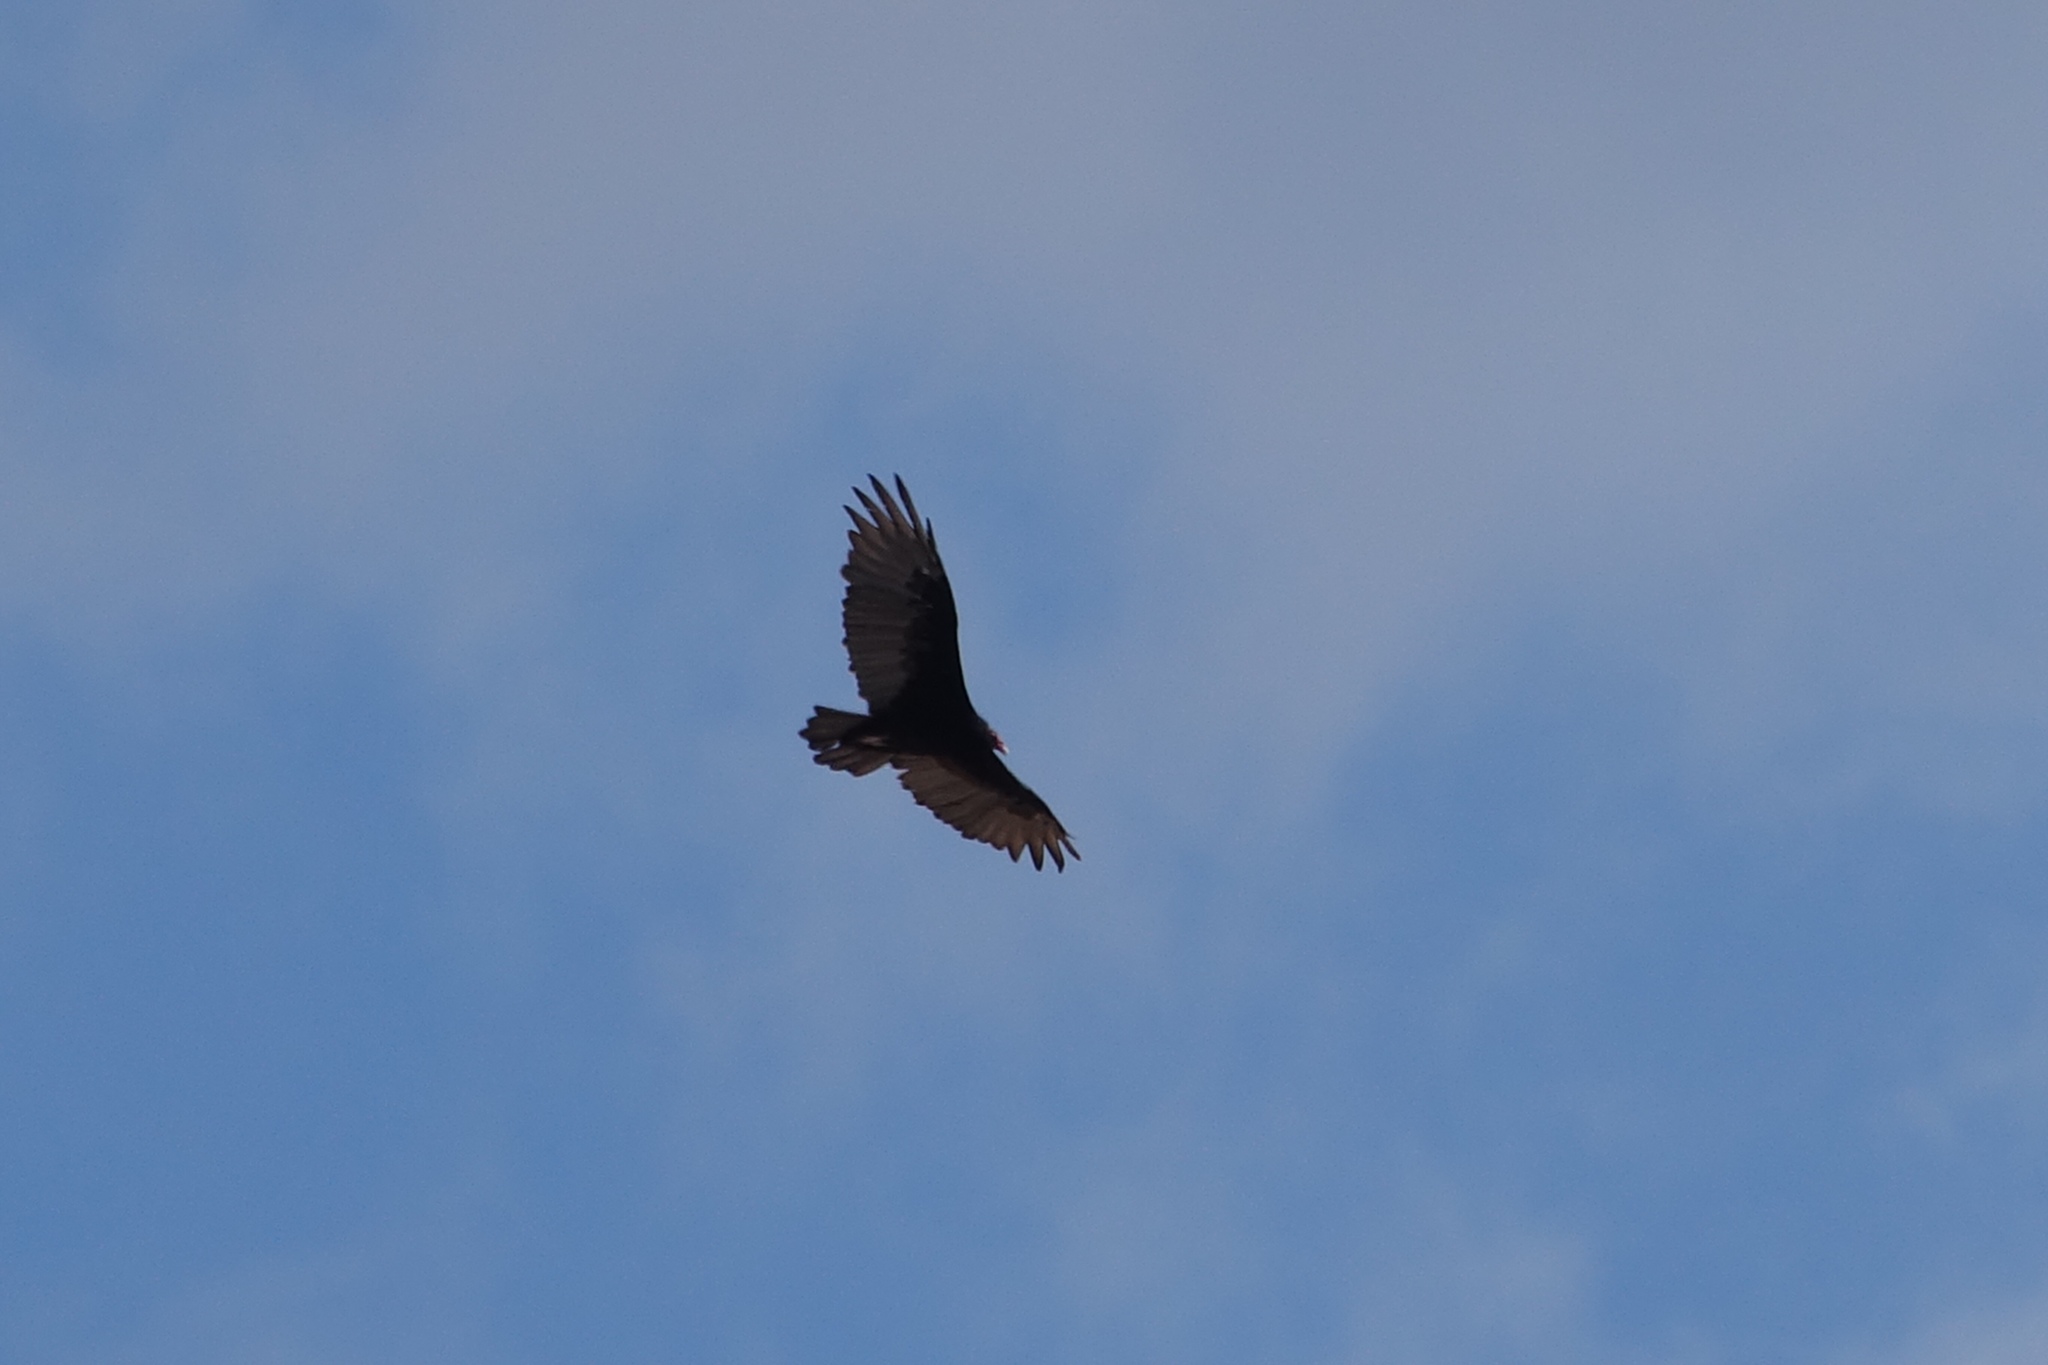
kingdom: Animalia
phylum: Chordata
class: Aves
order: Accipitriformes
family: Cathartidae
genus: Cathartes
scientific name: Cathartes aura
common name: Turkey vulture
